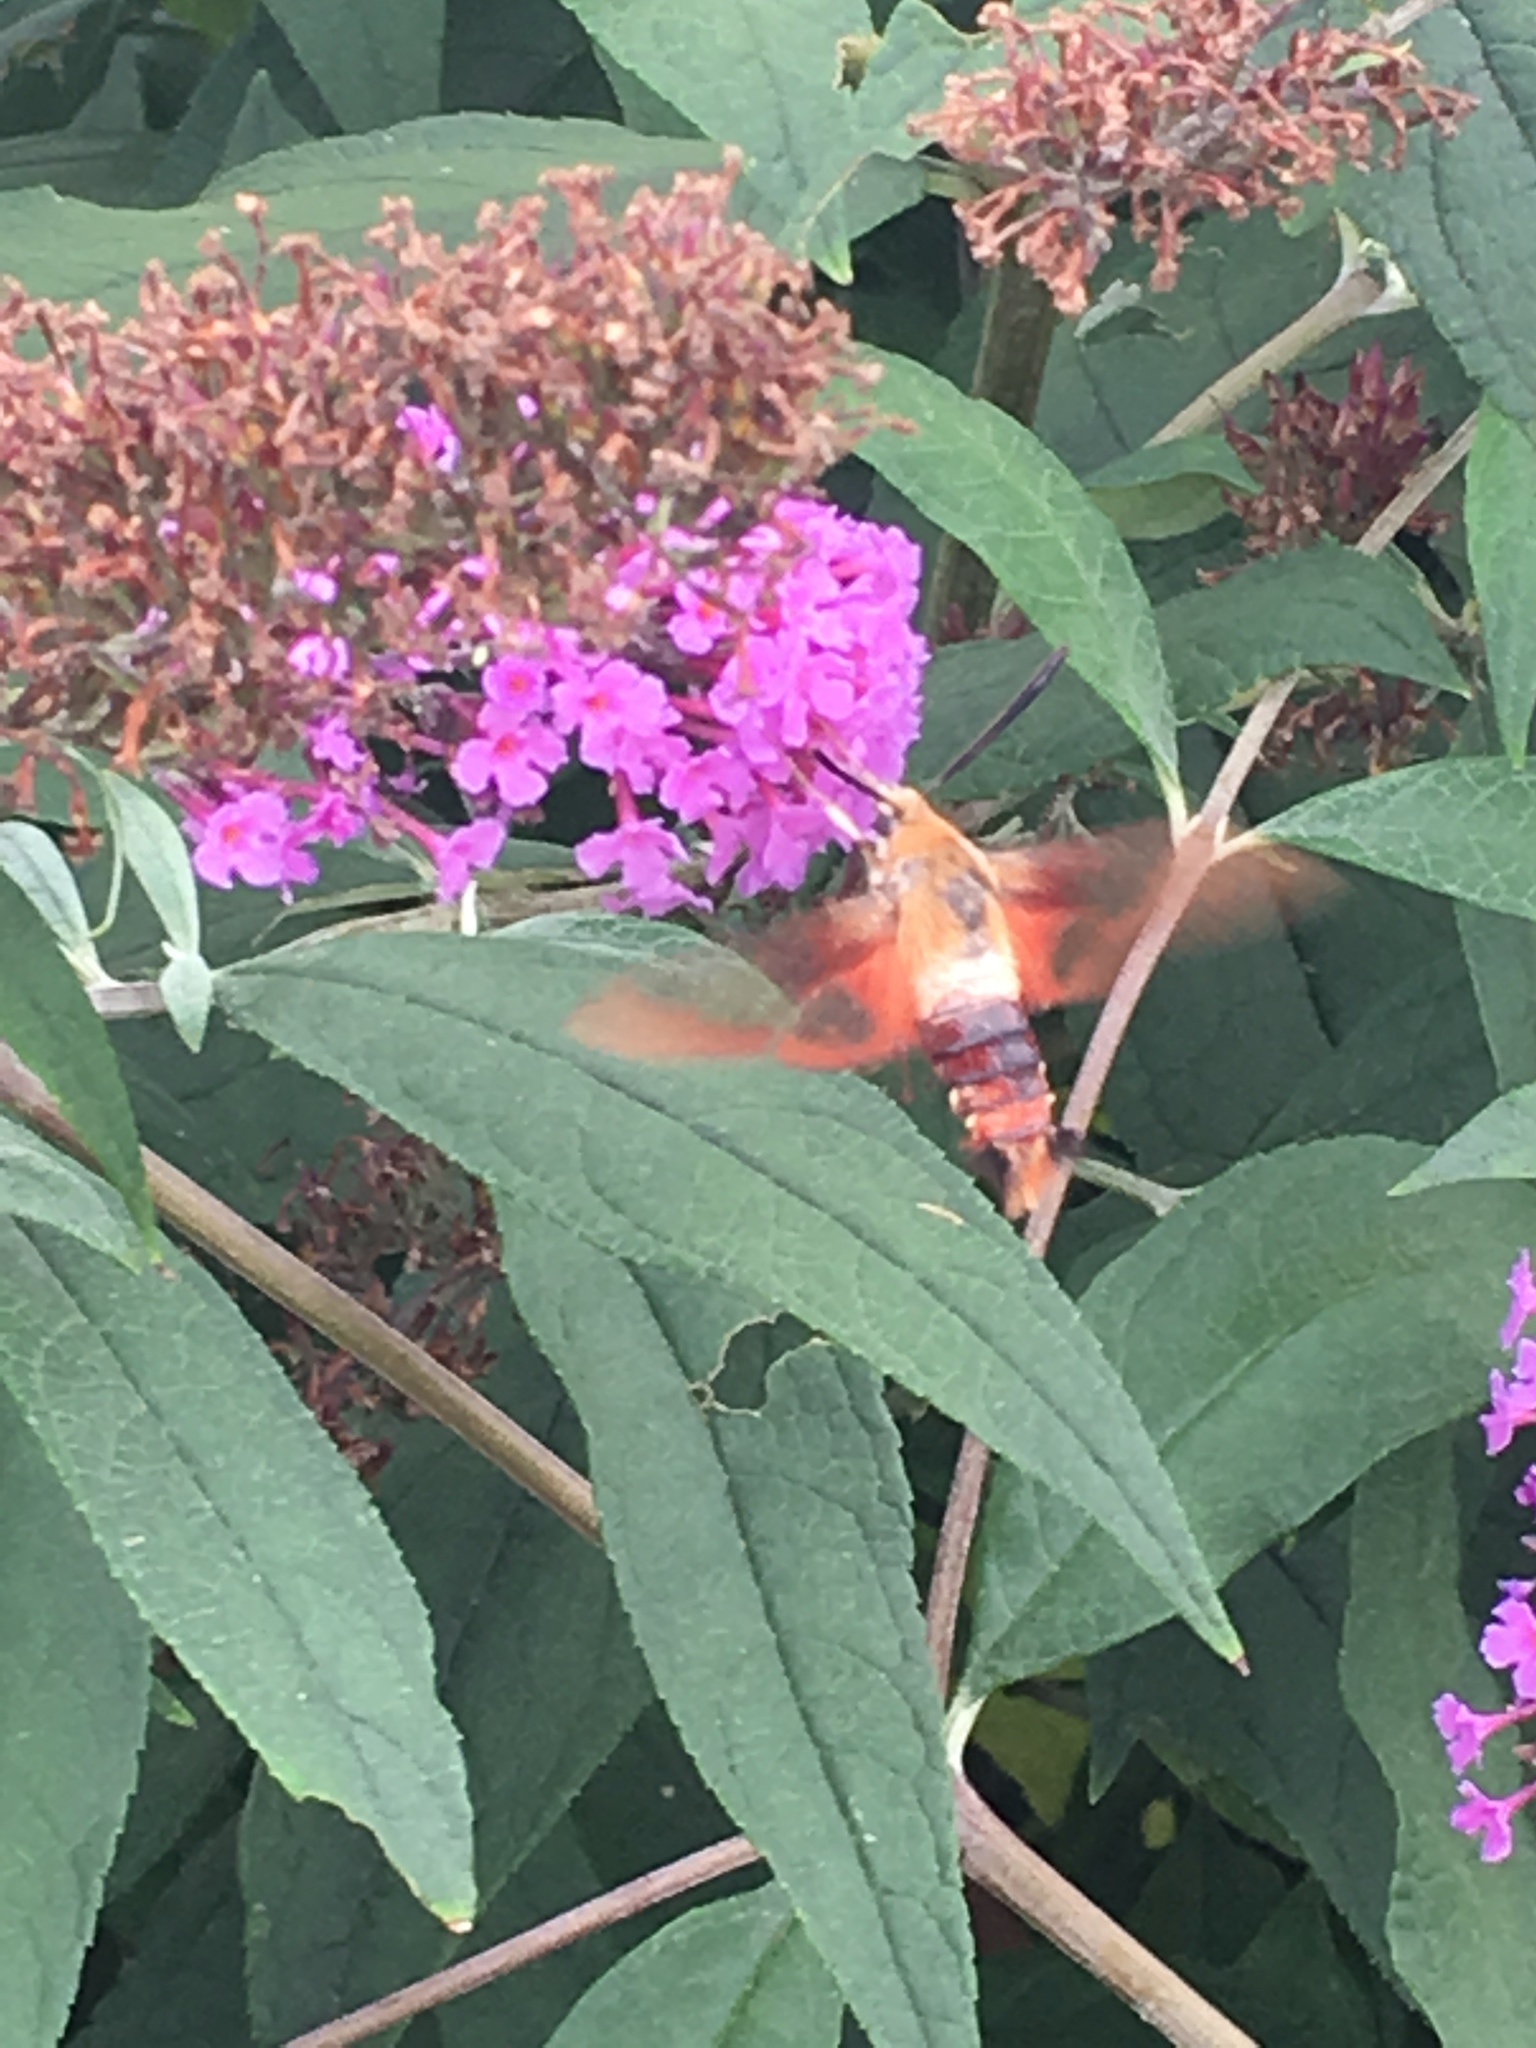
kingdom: Animalia
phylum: Arthropoda
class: Insecta
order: Lepidoptera
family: Sphingidae
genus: Hemaris
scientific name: Hemaris thysbe
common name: Common clear-wing
